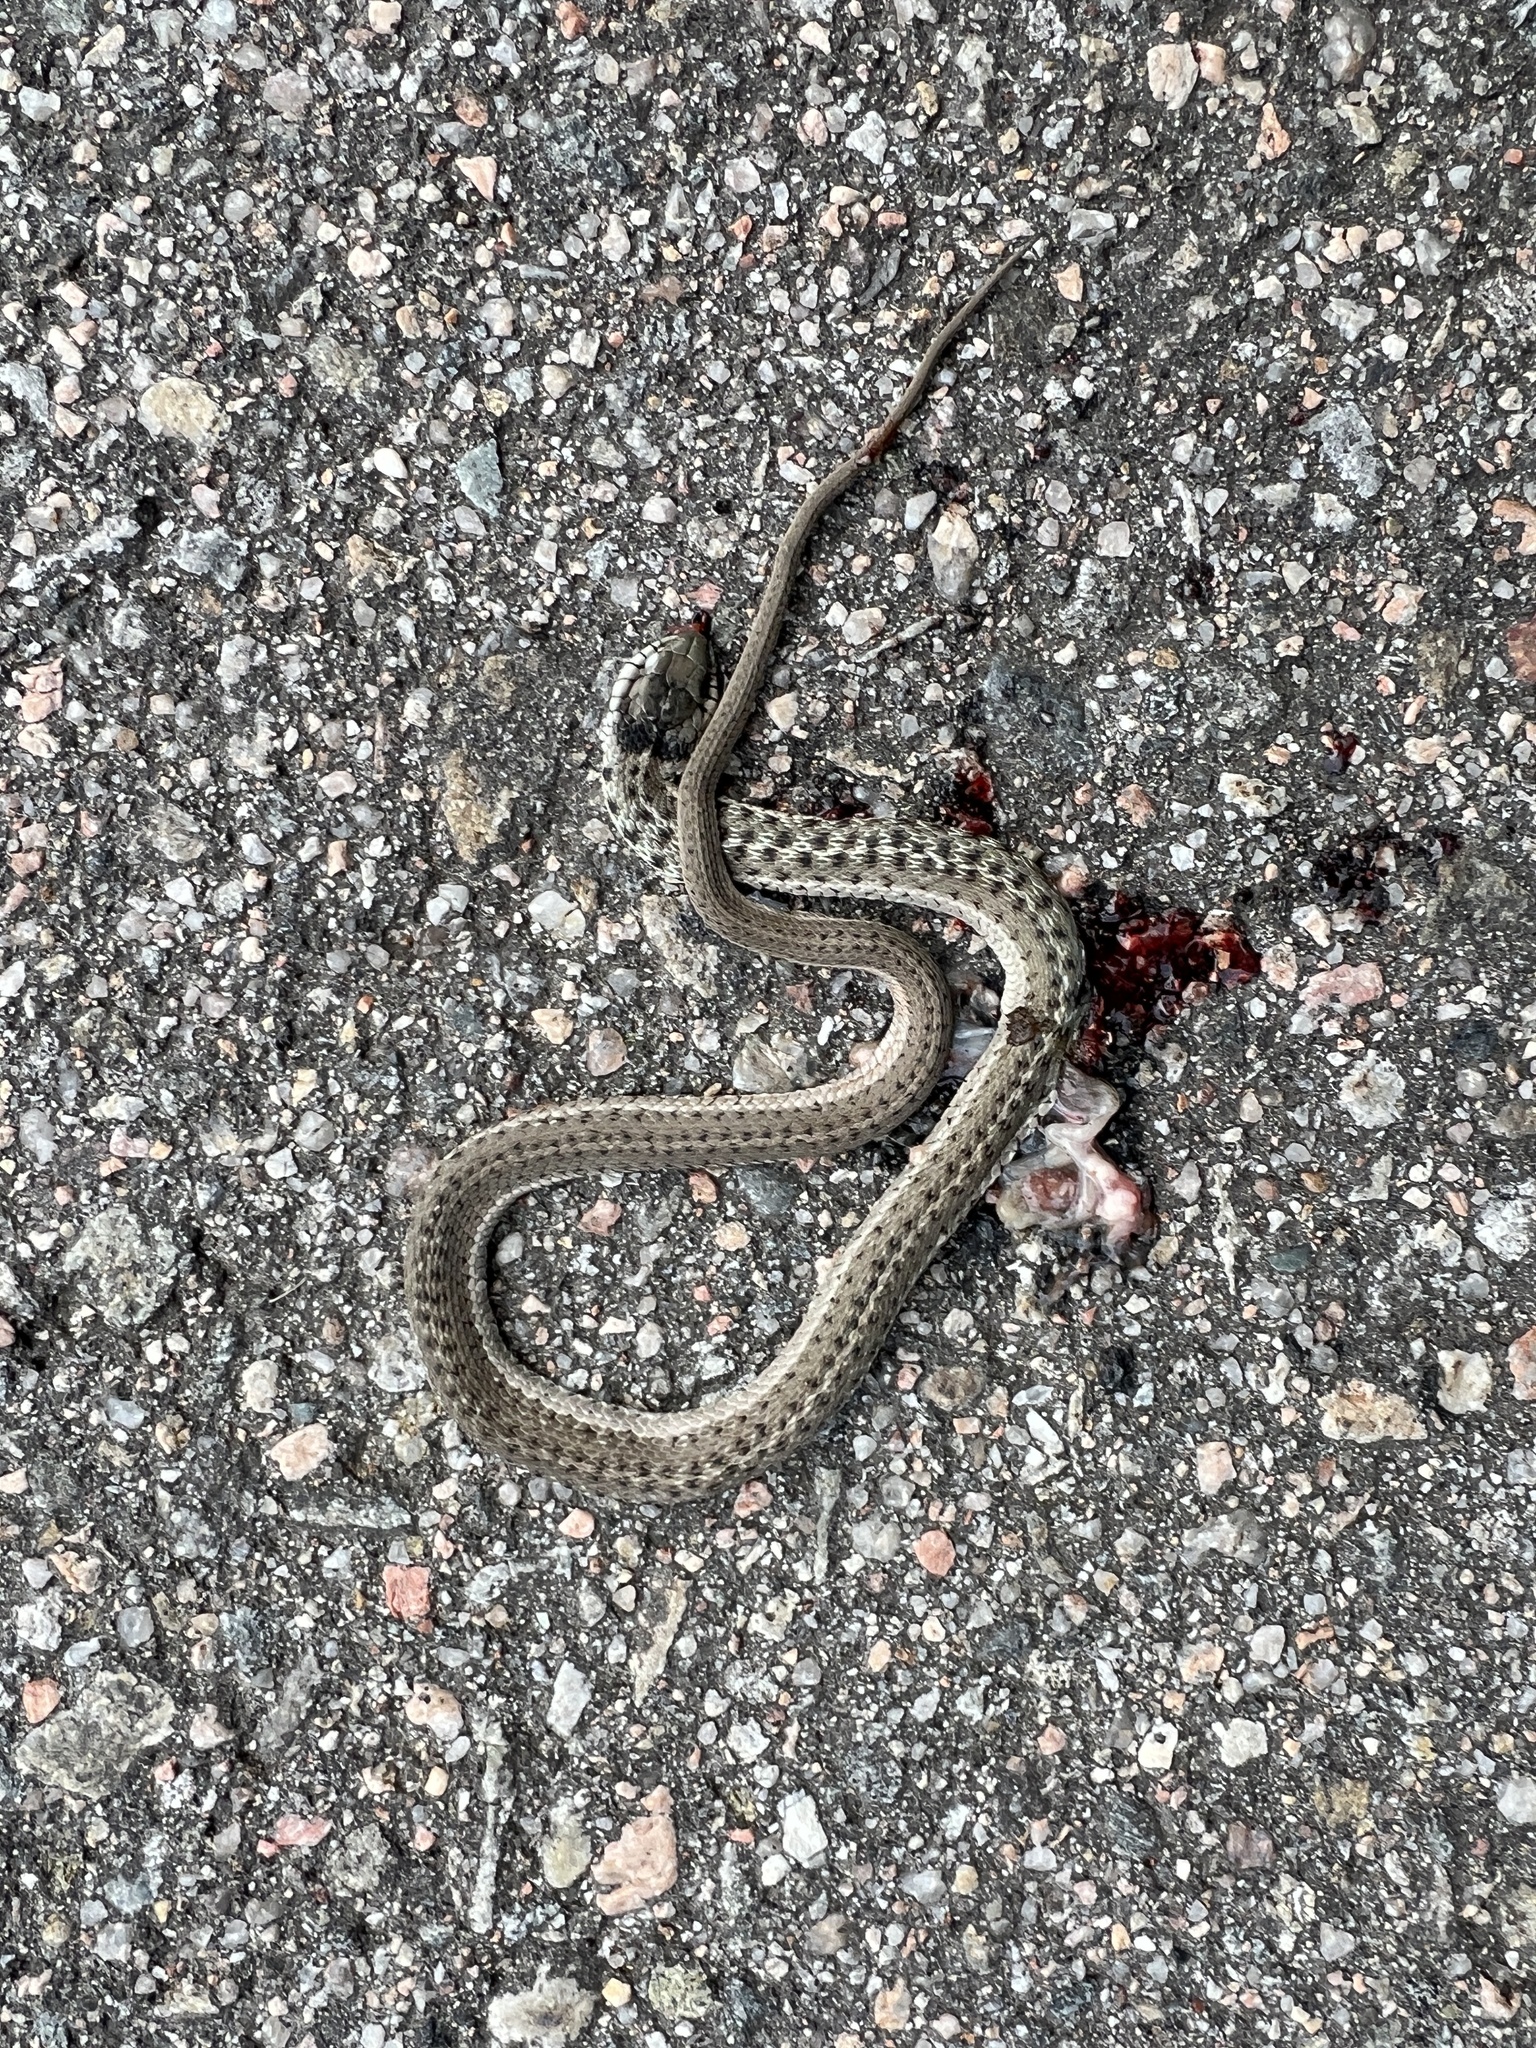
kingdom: Animalia
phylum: Chordata
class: Squamata
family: Colubridae
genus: Thamnophis
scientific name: Thamnophis elegans
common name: Western terrestrial garter snake
